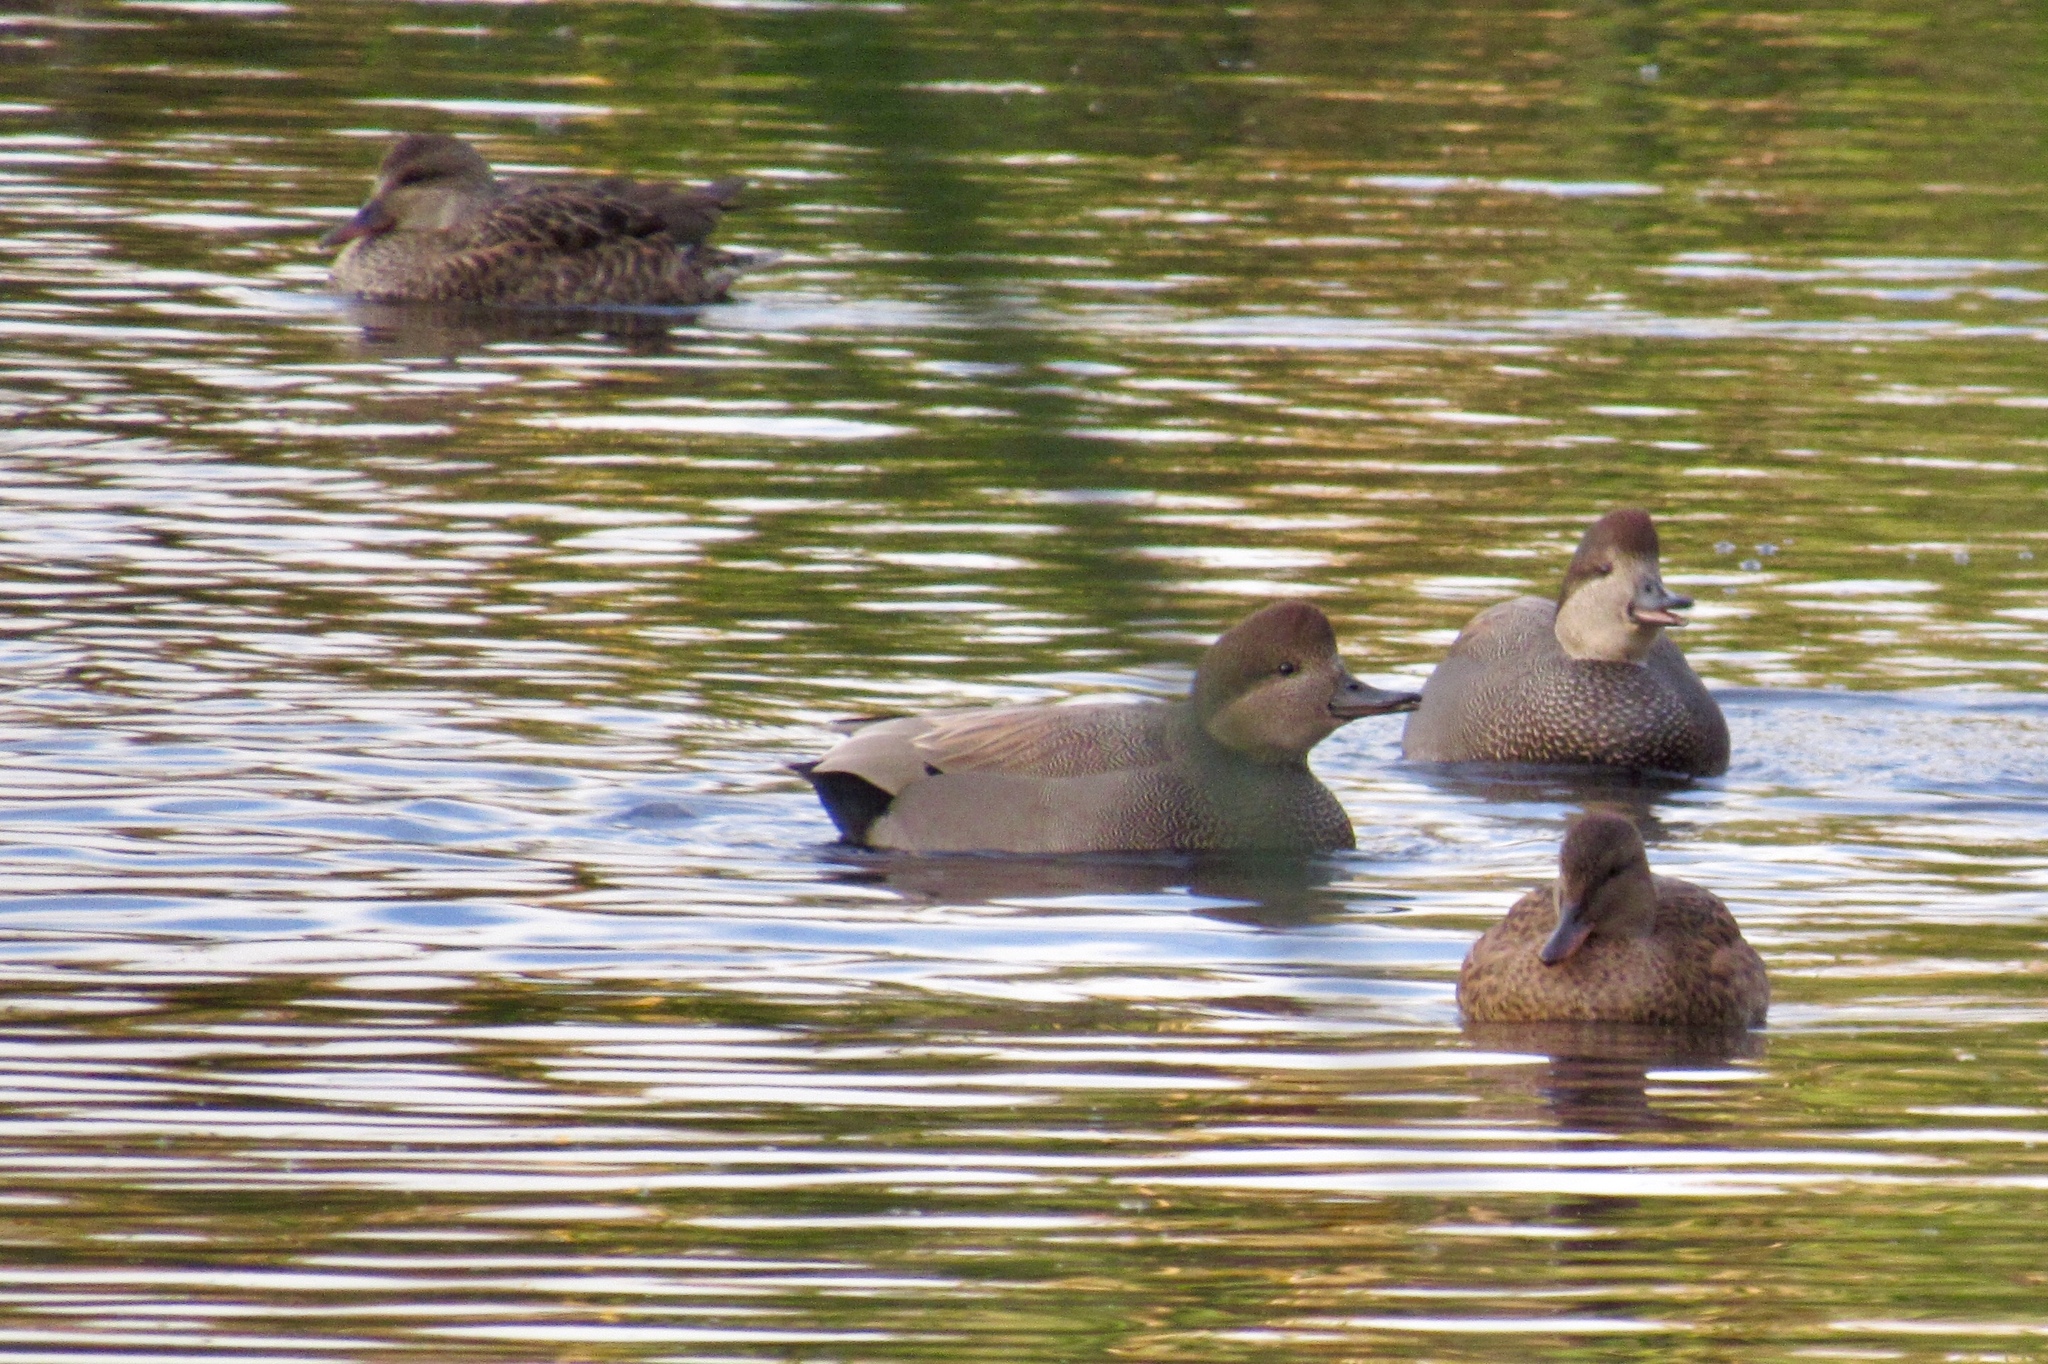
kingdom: Animalia
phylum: Chordata
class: Aves
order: Anseriformes
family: Anatidae
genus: Mareca
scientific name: Mareca strepera
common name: Gadwall
